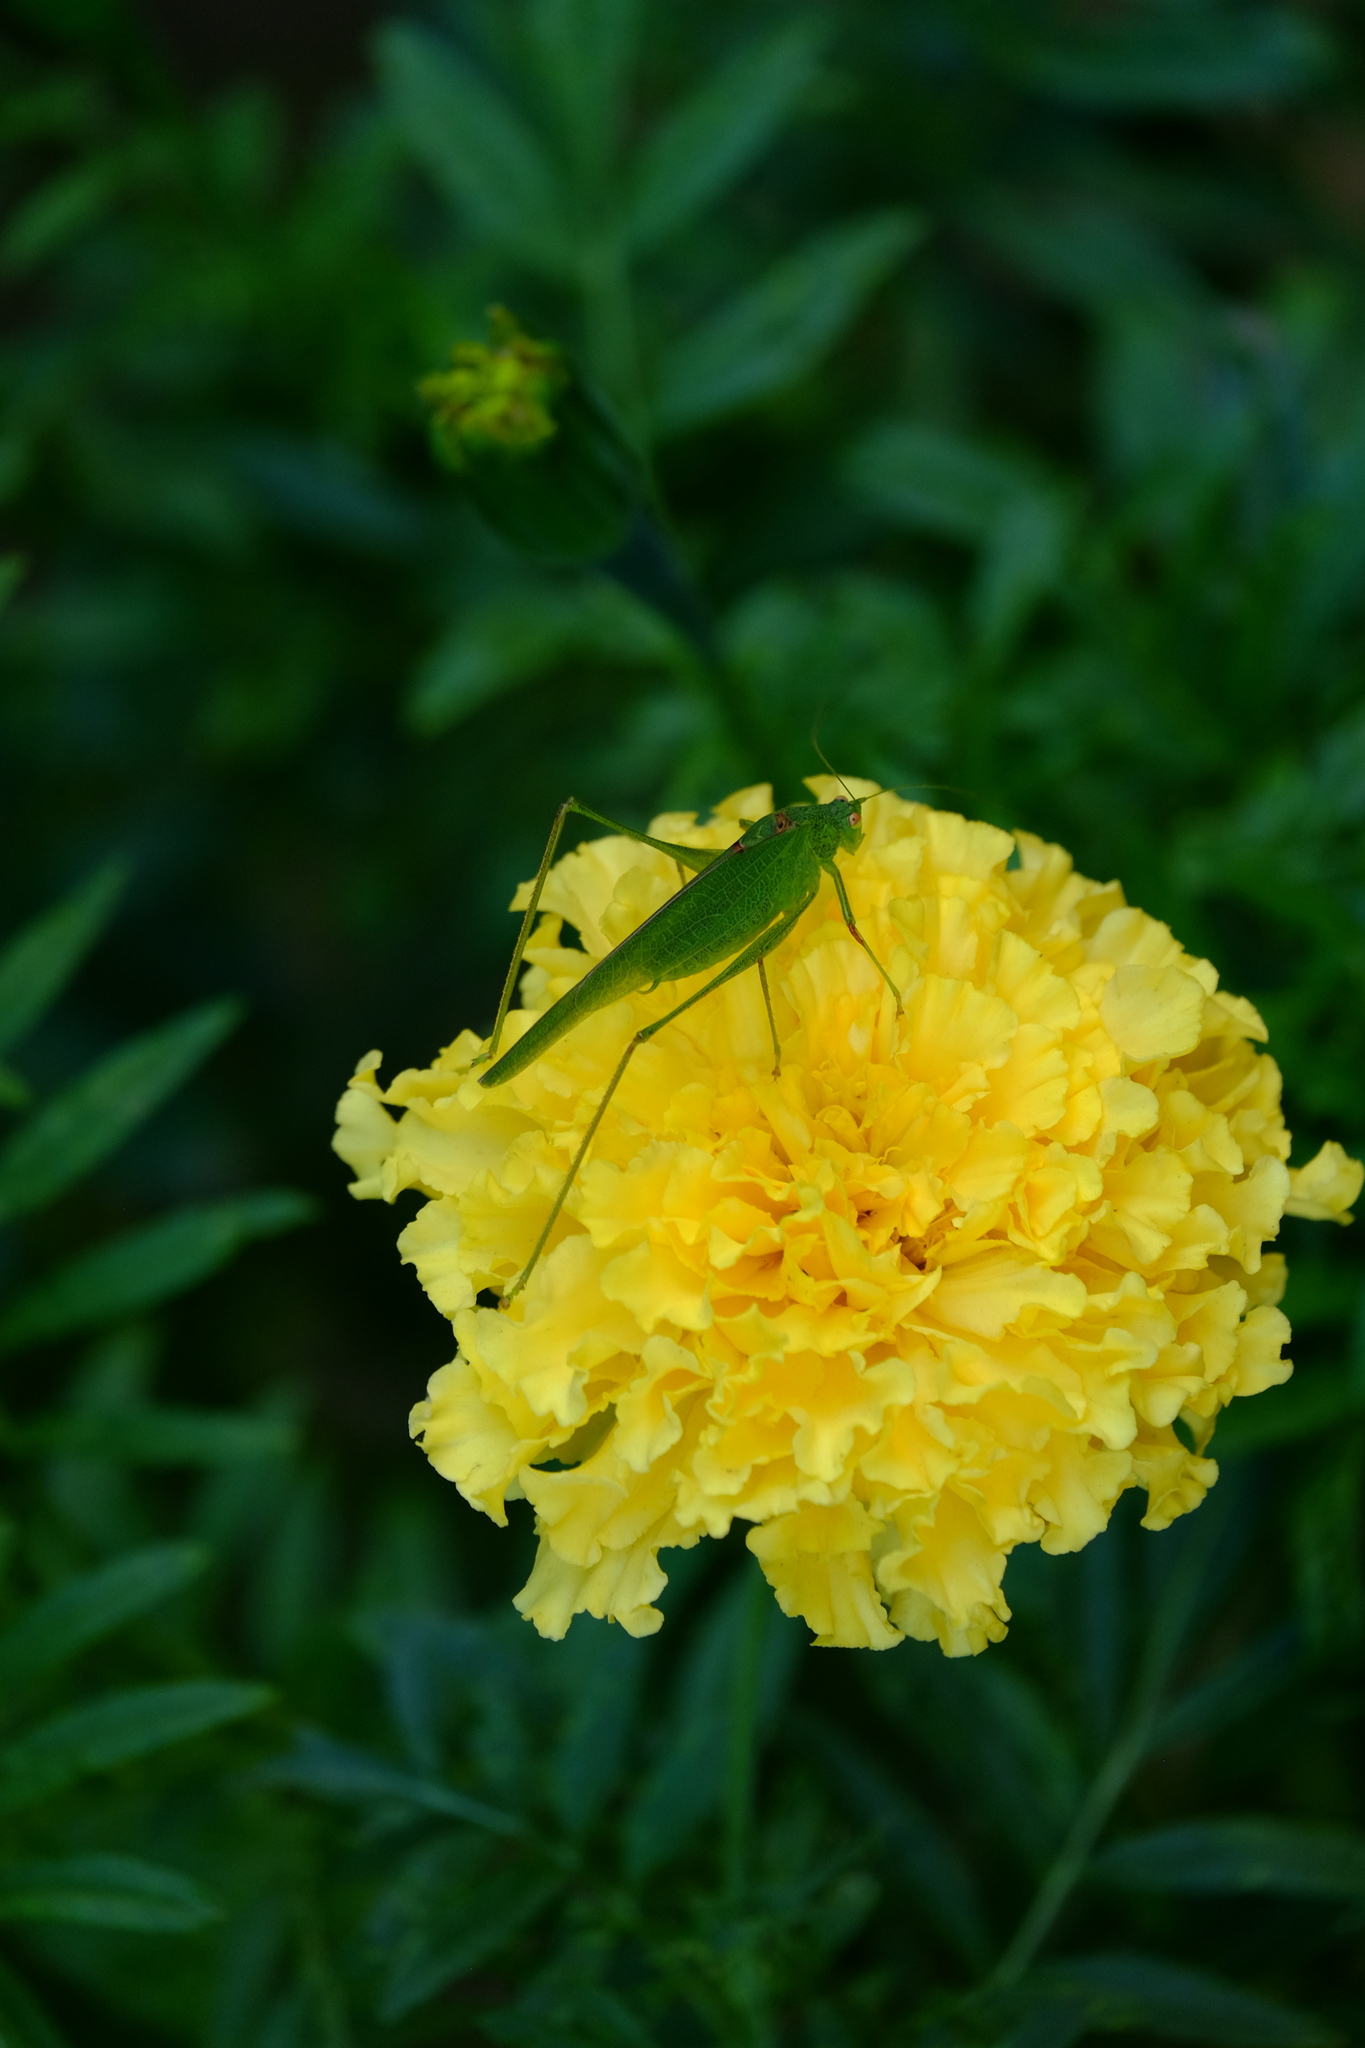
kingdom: Animalia
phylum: Arthropoda
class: Insecta
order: Orthoptera
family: Tettigoniidae
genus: Phaneroptera
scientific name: Phaneroptera nana
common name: Southern sickle bush-cricket
